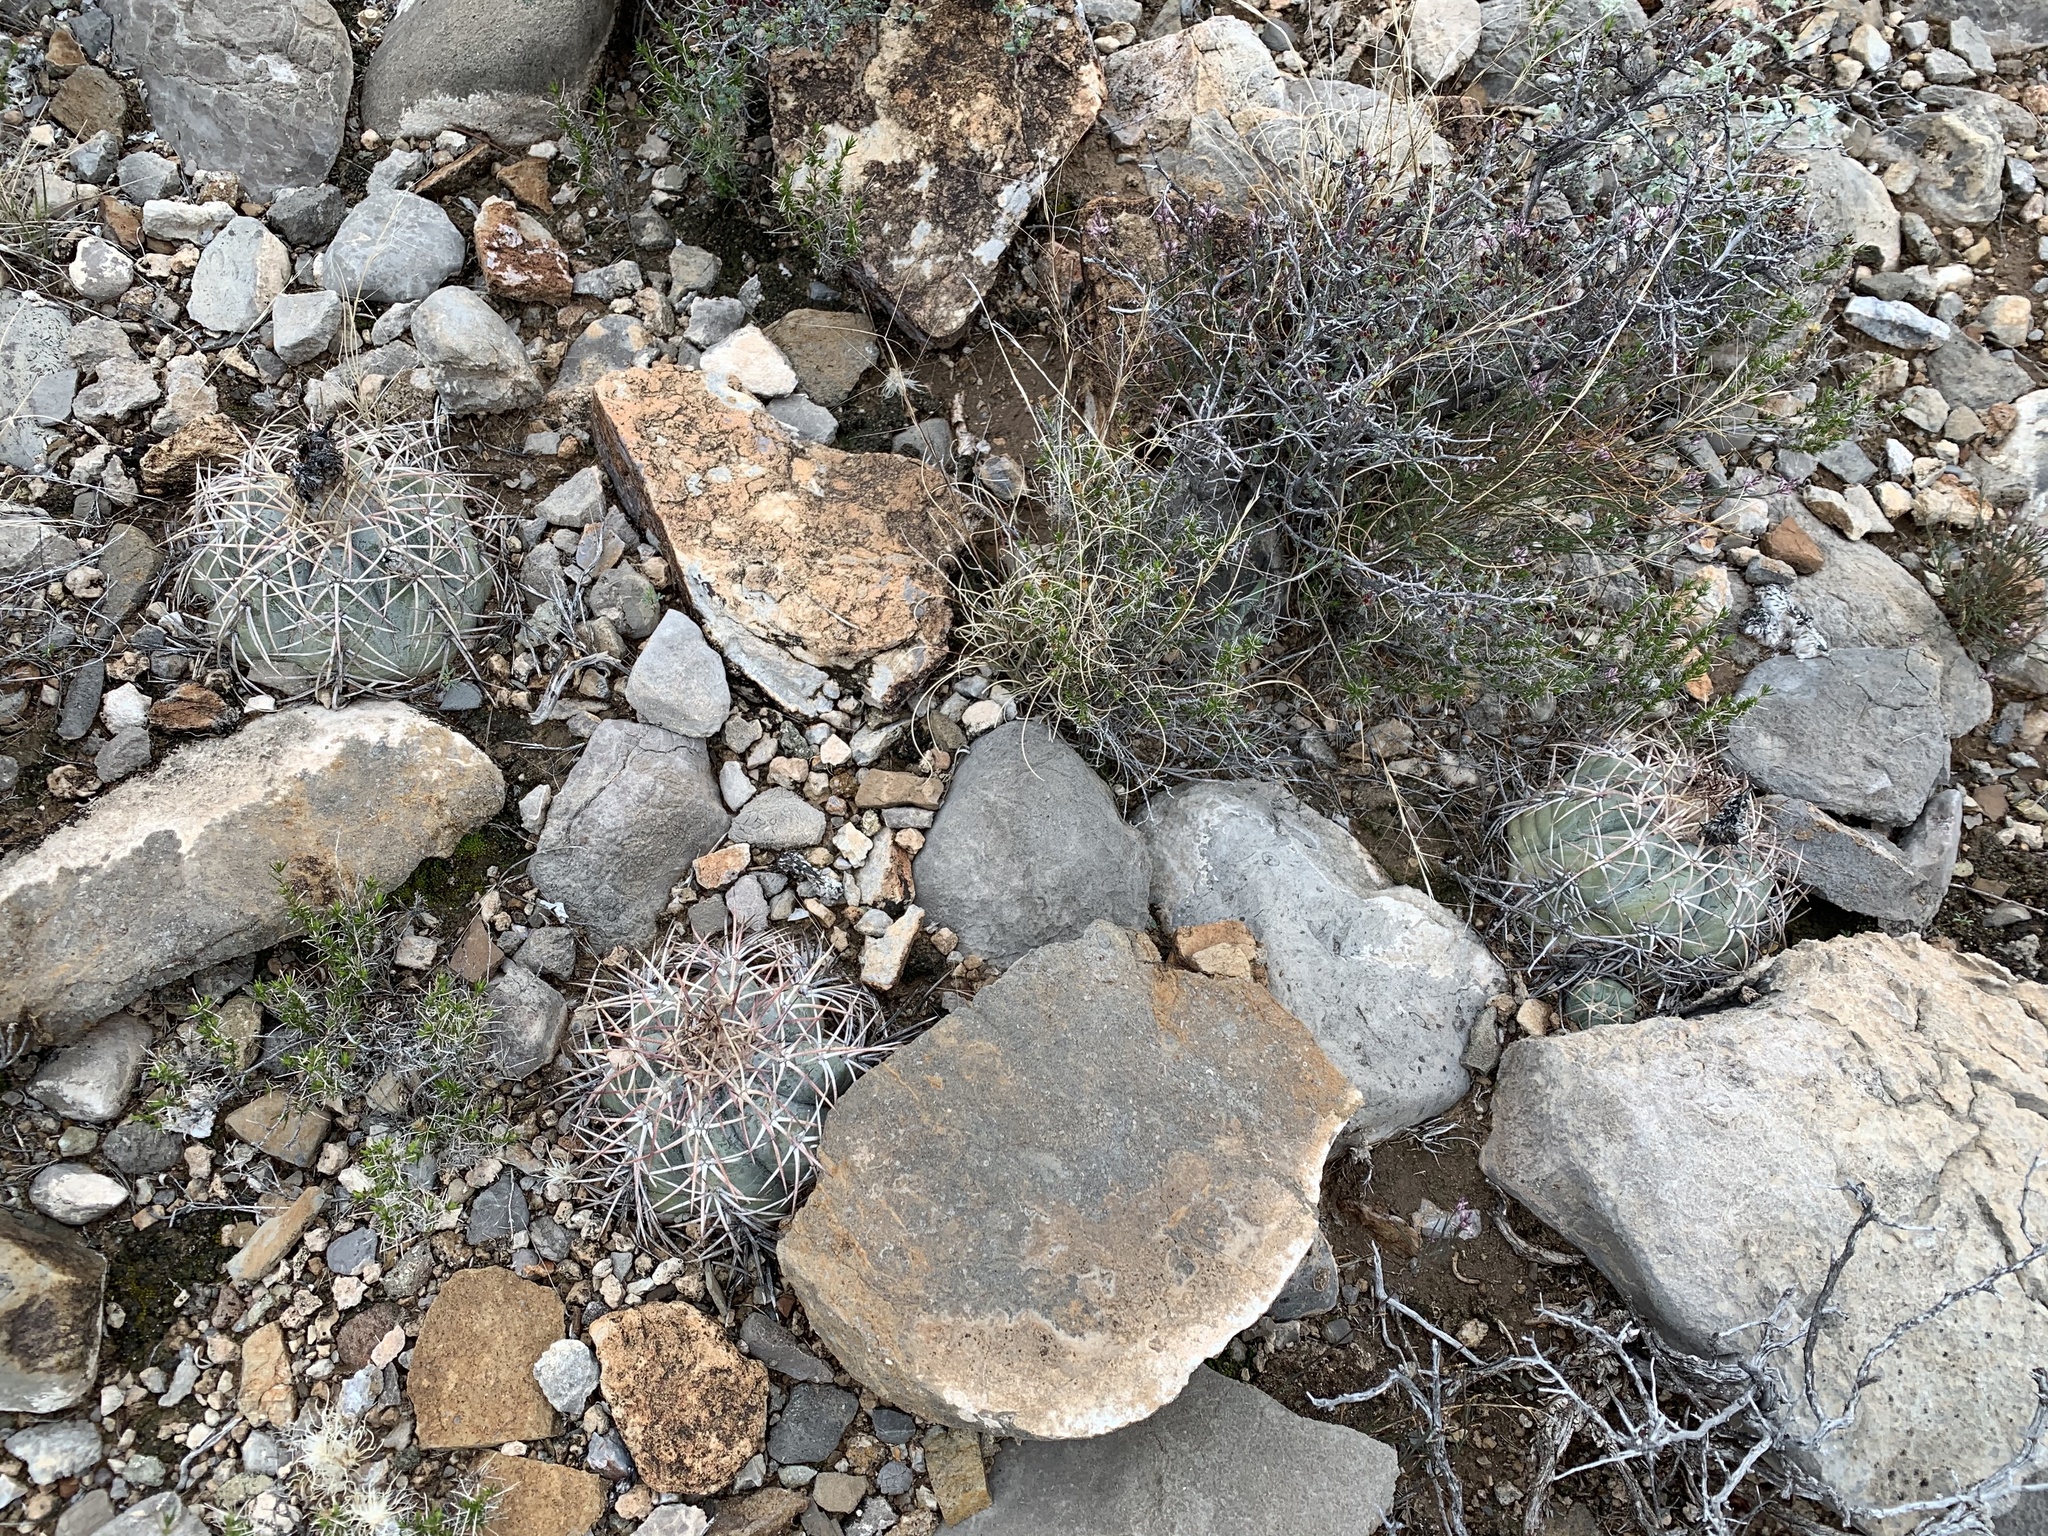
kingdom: Plantae
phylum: Tracheophyta
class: Magnoliopsida
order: Caryophyllales
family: Cactaceae
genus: Echinocactus
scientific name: Echinocactus horizonthalonius
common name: Devilshead
